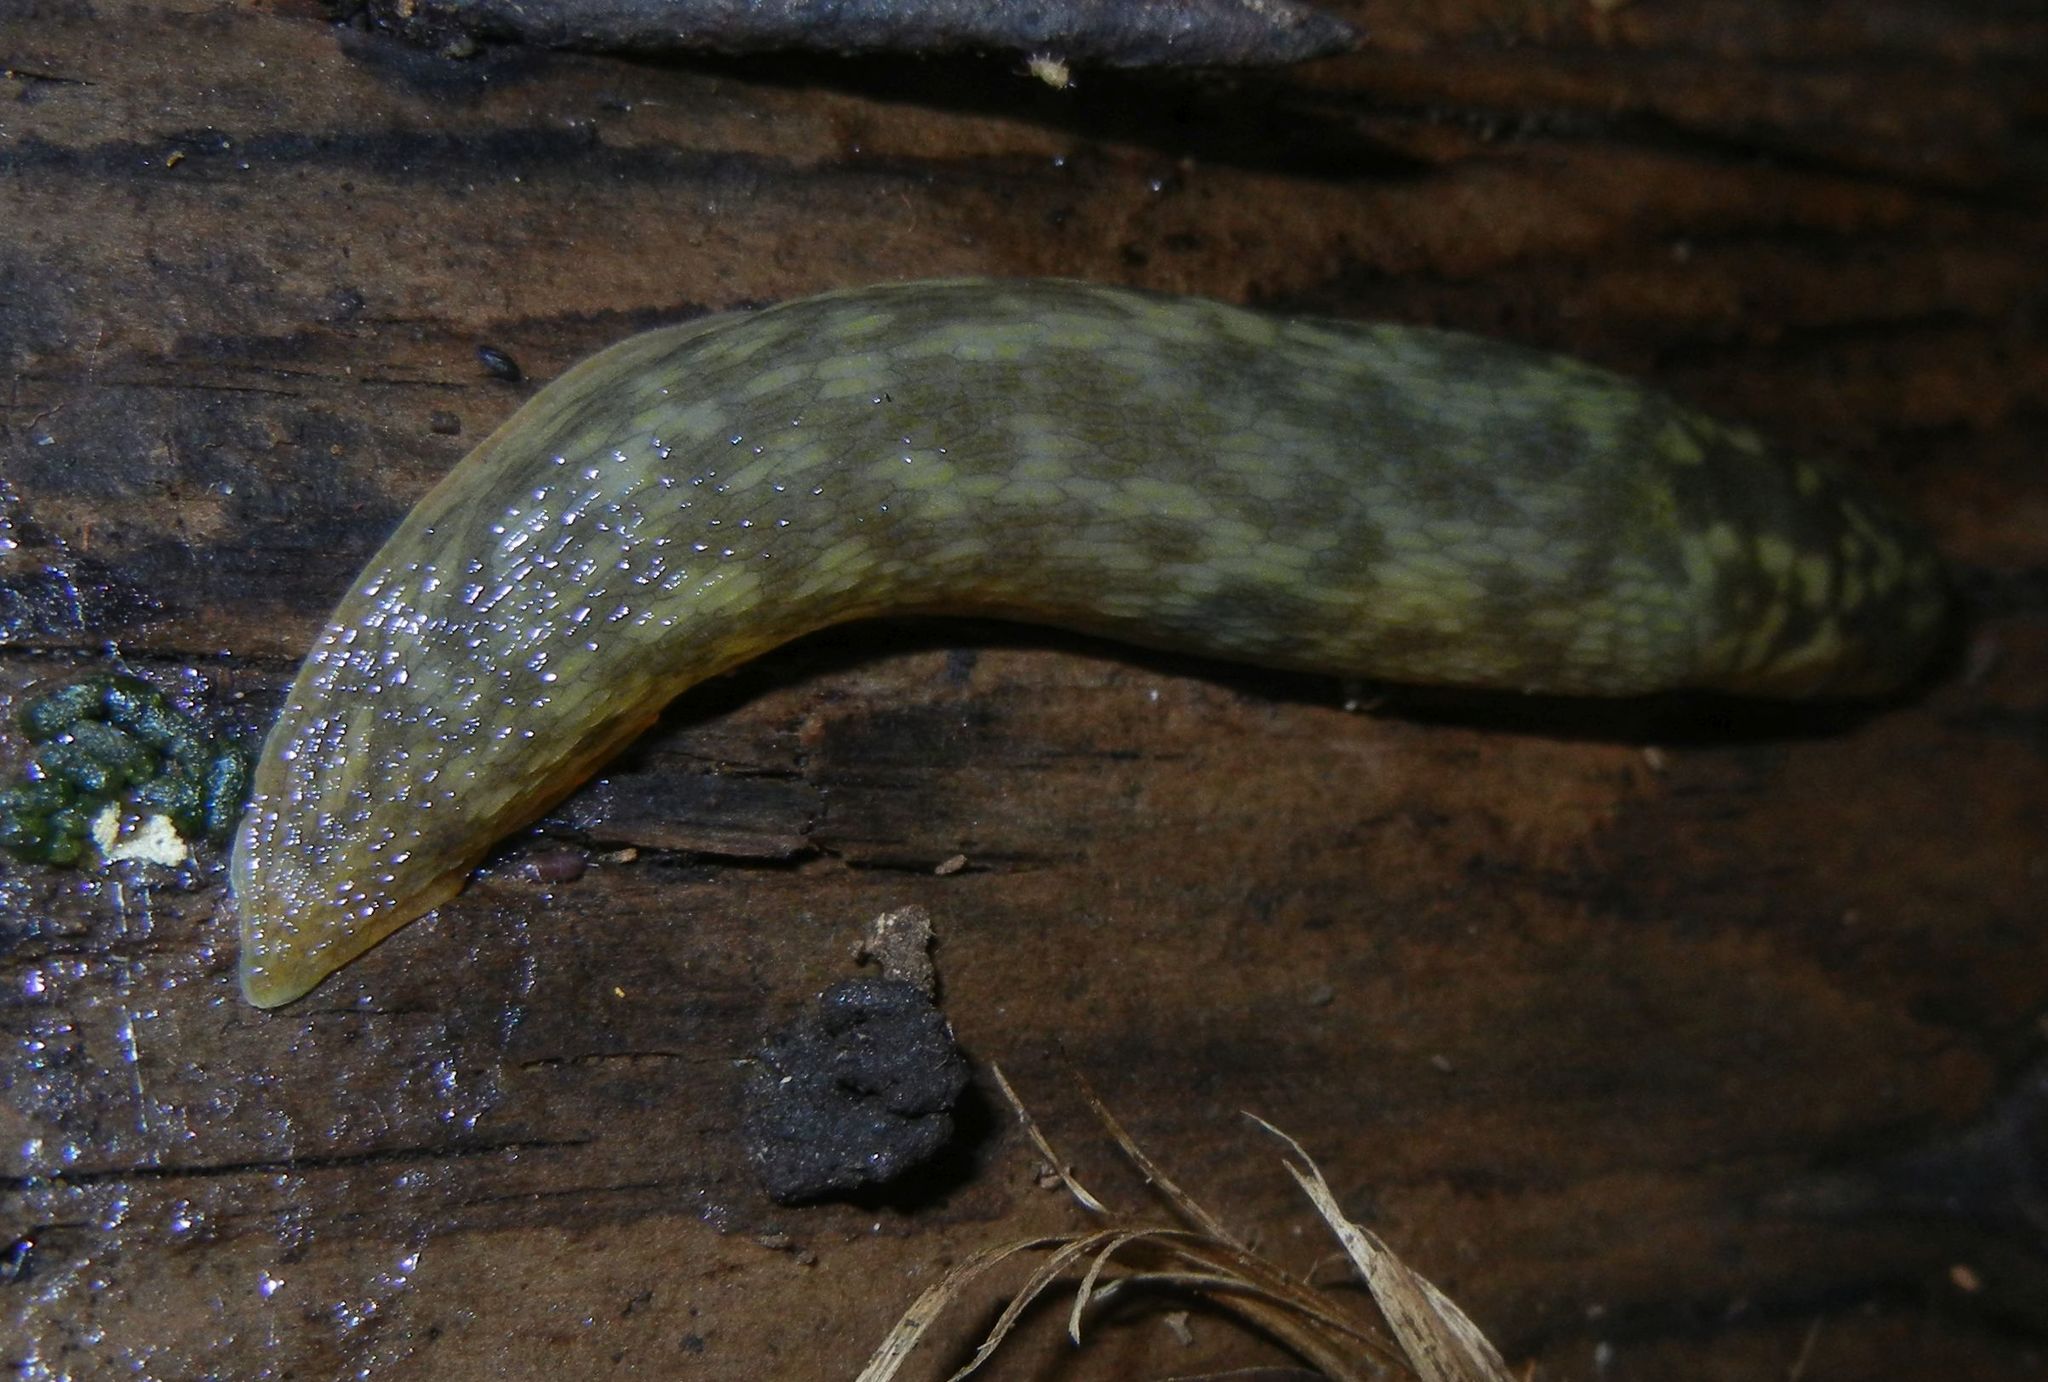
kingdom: Animalia
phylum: Mollusca
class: Gastropoda
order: Stylommatophora
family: Limacidae
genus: Limacus
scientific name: Limacus maculatus
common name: Irish yellow slug
